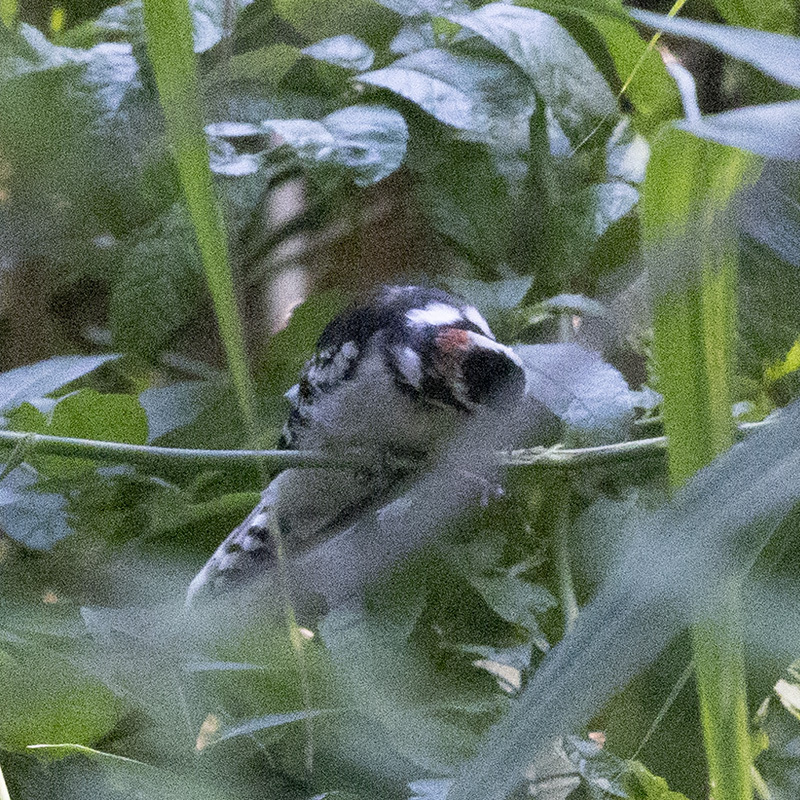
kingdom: Animalia
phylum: Chordata
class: Aves
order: Piciformes
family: Picidae
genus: Dryobates
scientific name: Dryobates pubescens
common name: Downy woodpecker
